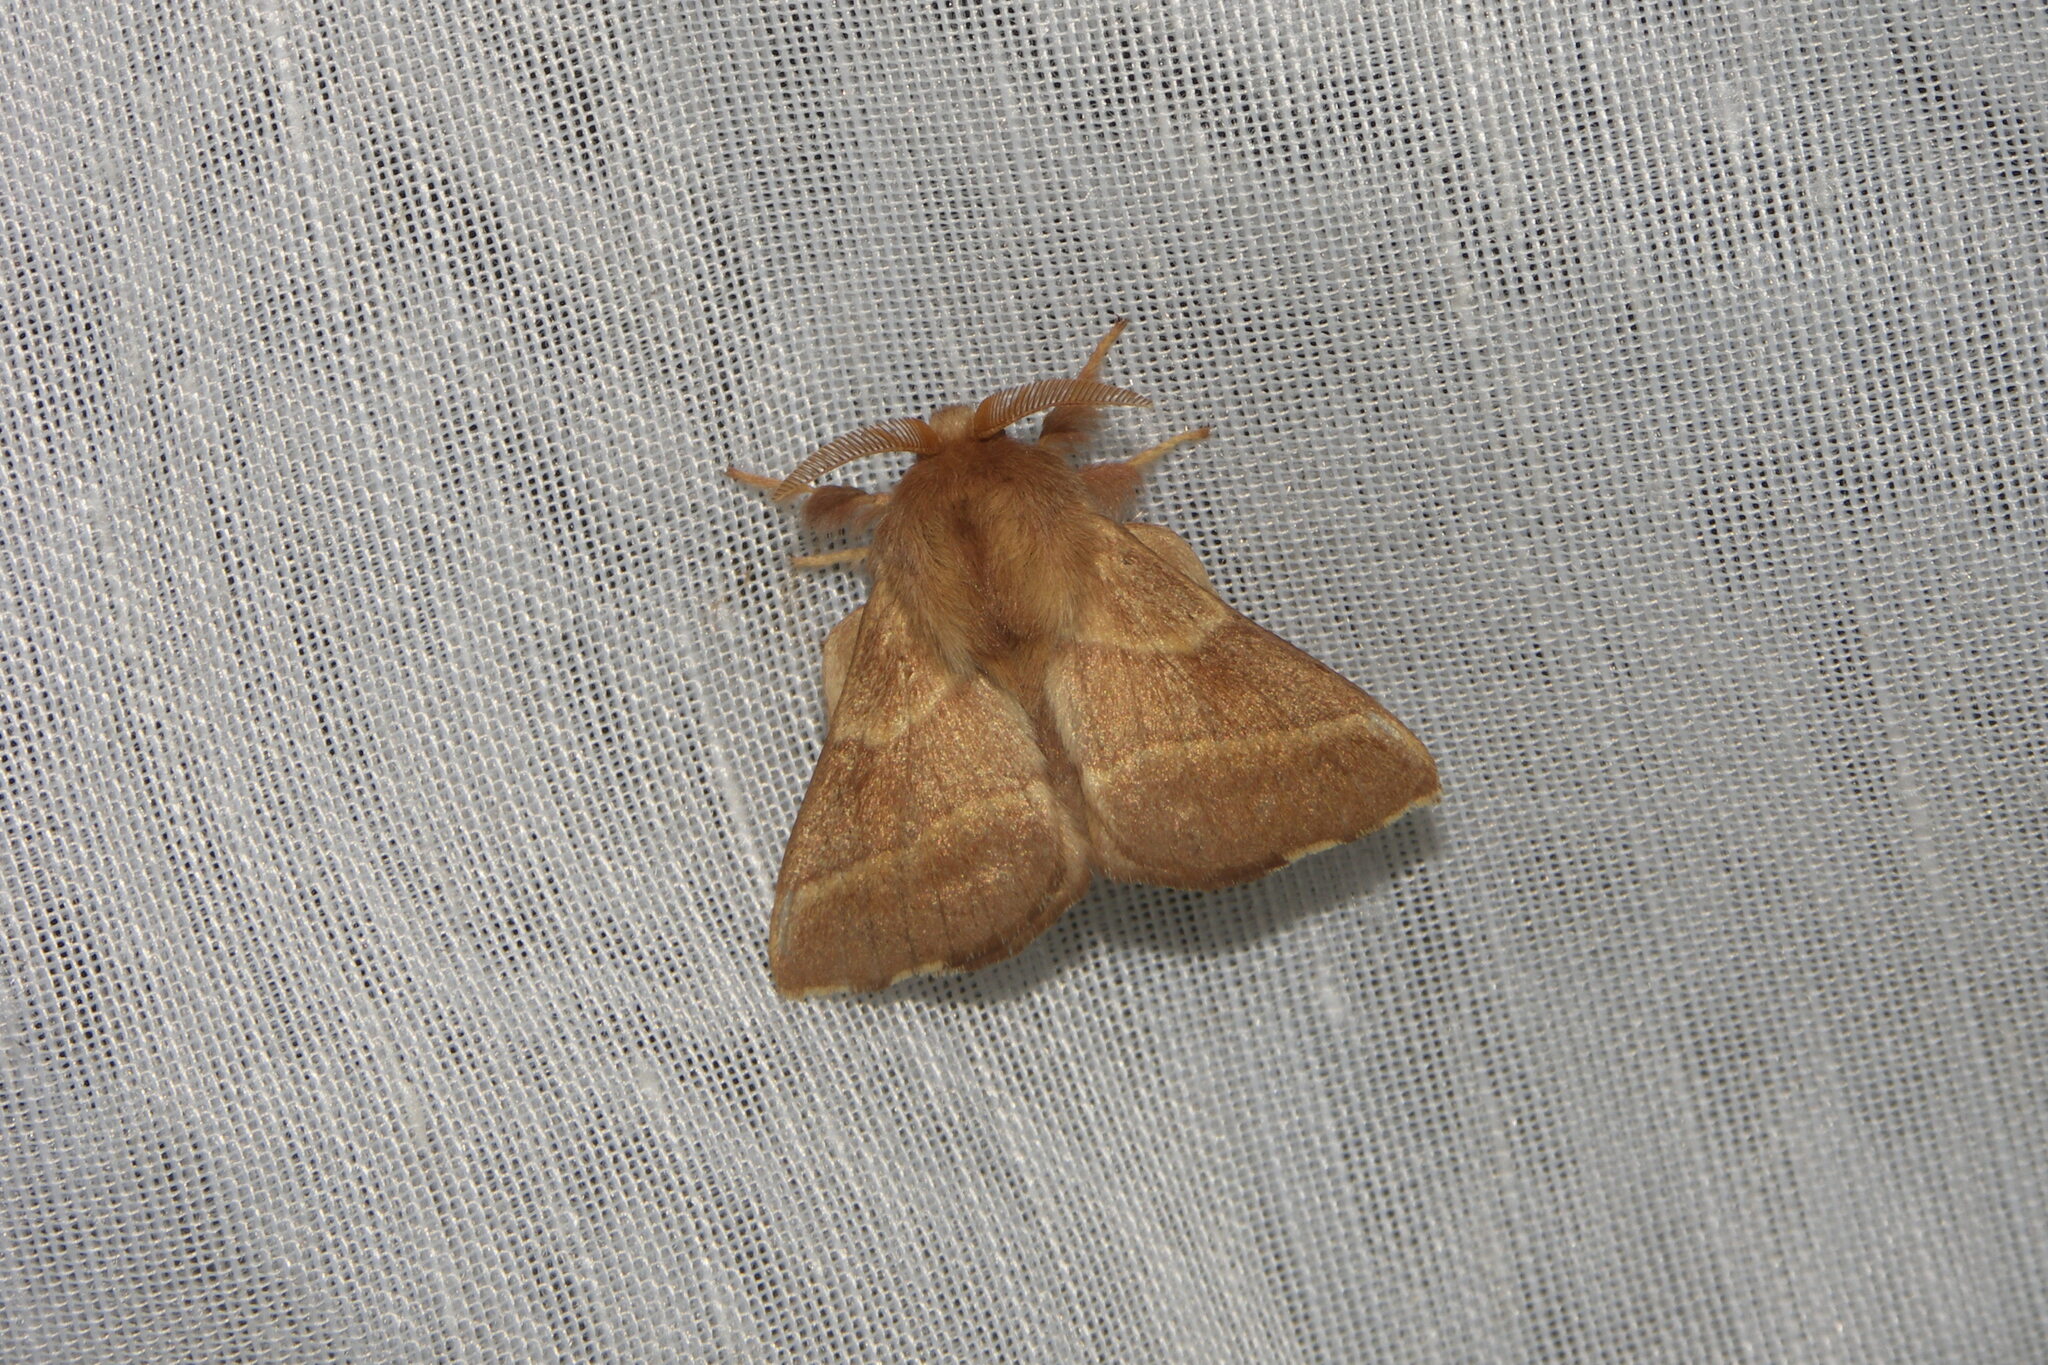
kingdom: Animalia
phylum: Arthropoda
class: Insecta
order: Lepidoptera
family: Lasiocampidae
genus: Malacosoma
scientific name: Malacosoma neustria
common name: The lackey
